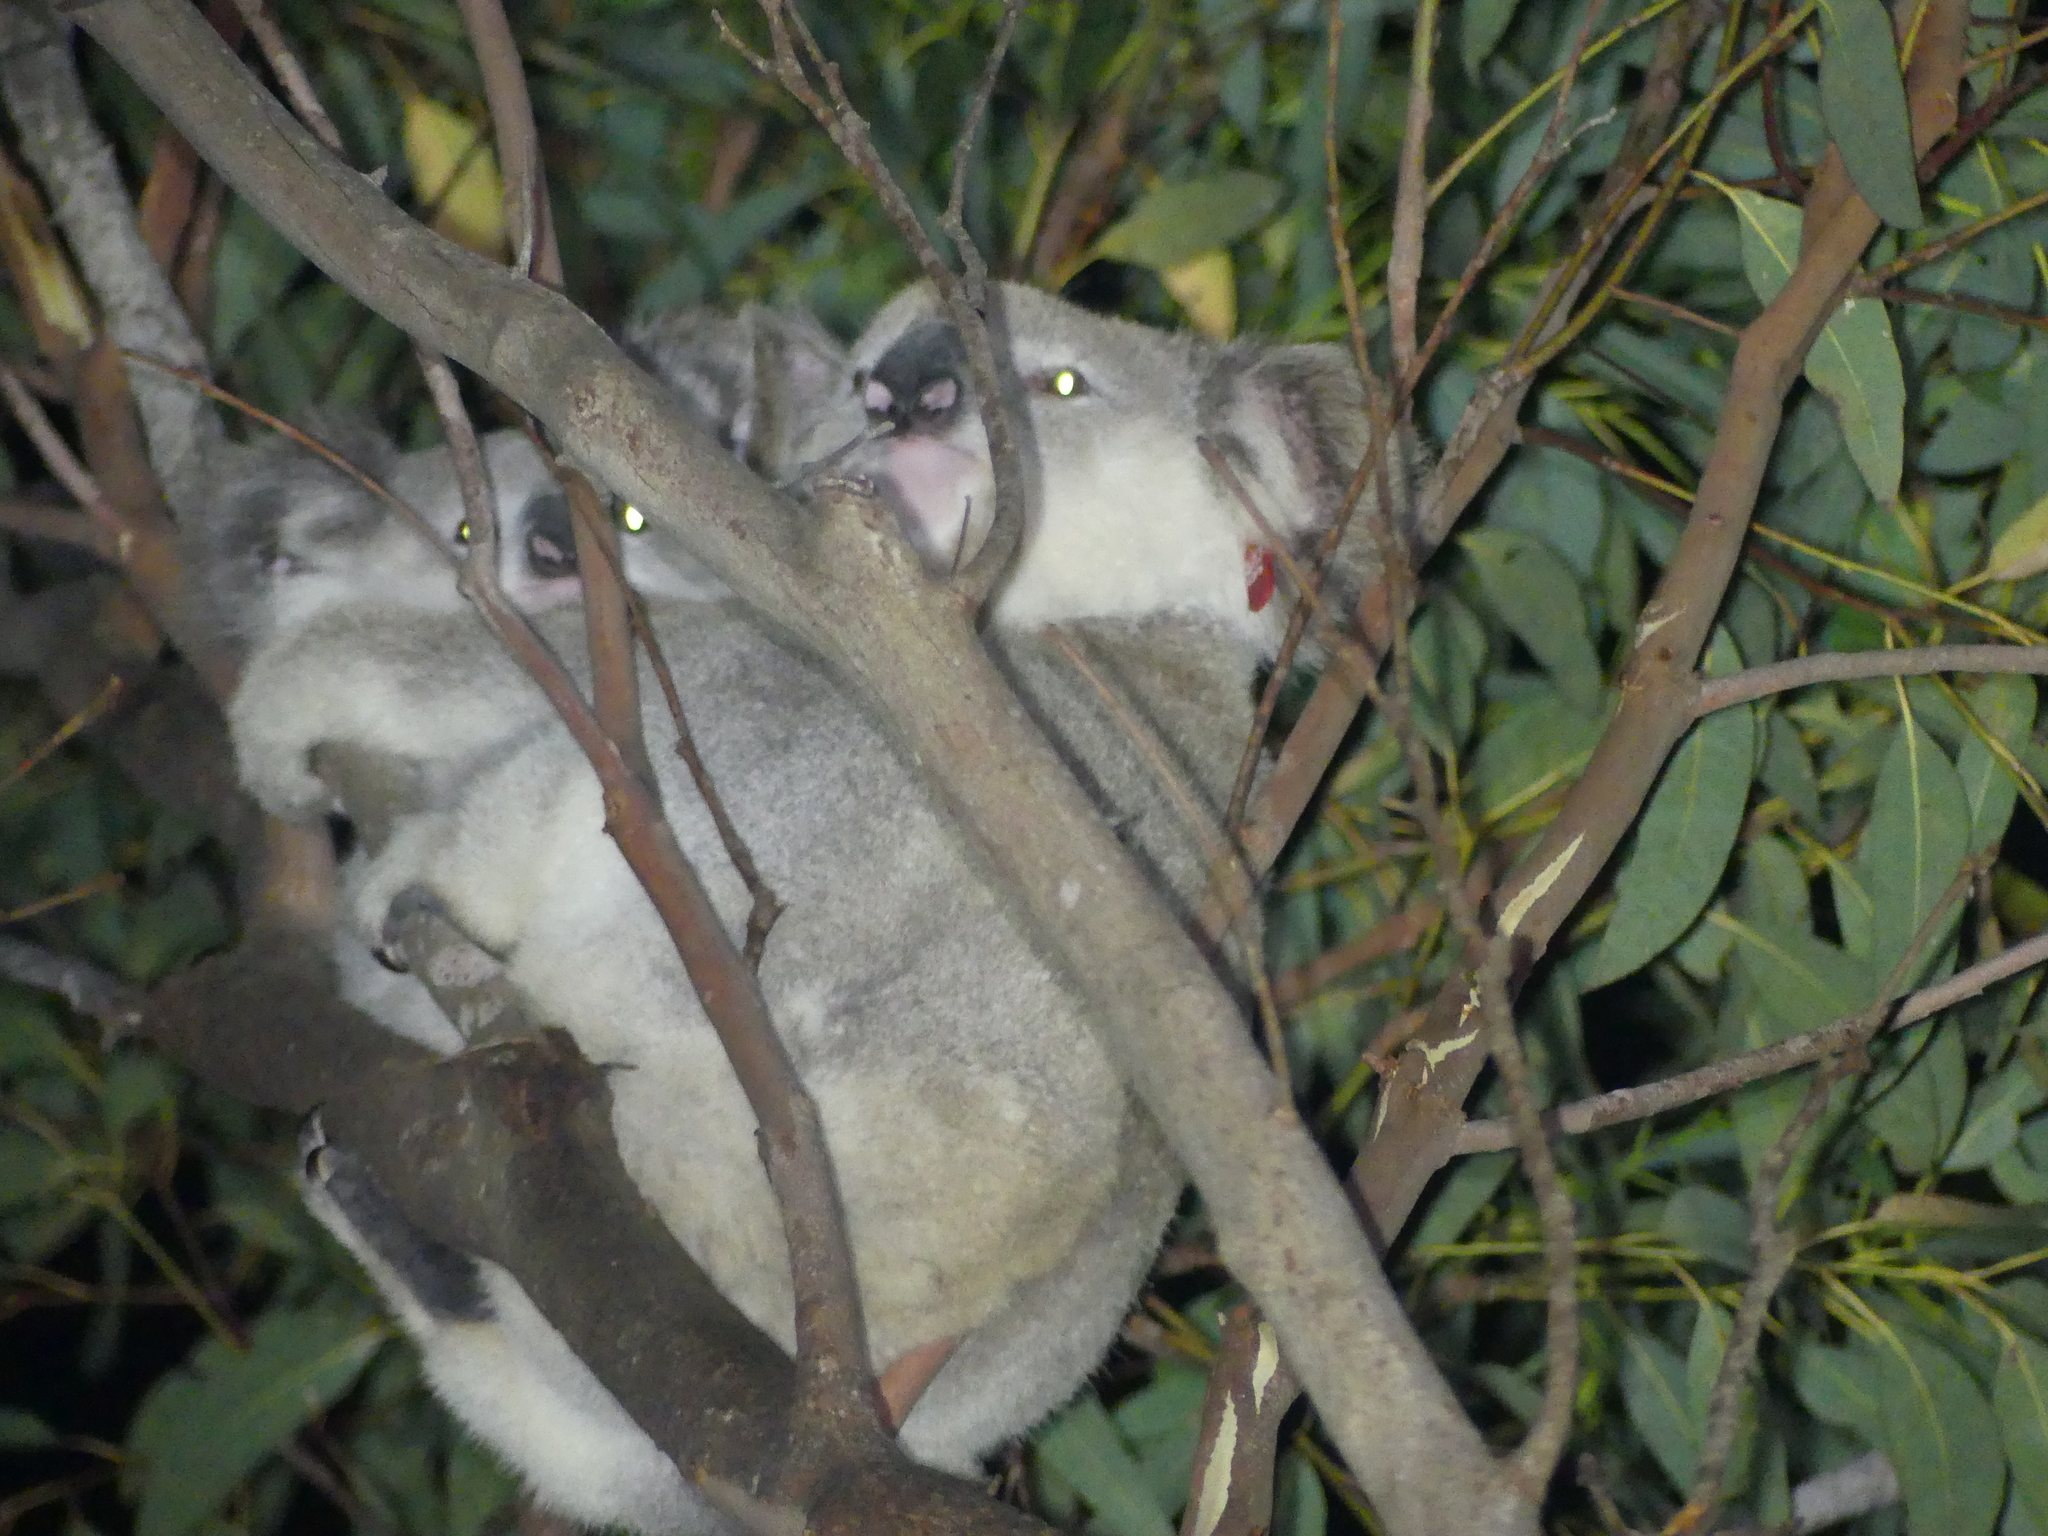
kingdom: Animalia
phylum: Chordata
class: Mammalia
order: Diprotodontia
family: Phascolarctidae
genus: Phascolarctos
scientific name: Phascolarctos cinereus
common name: Koala
